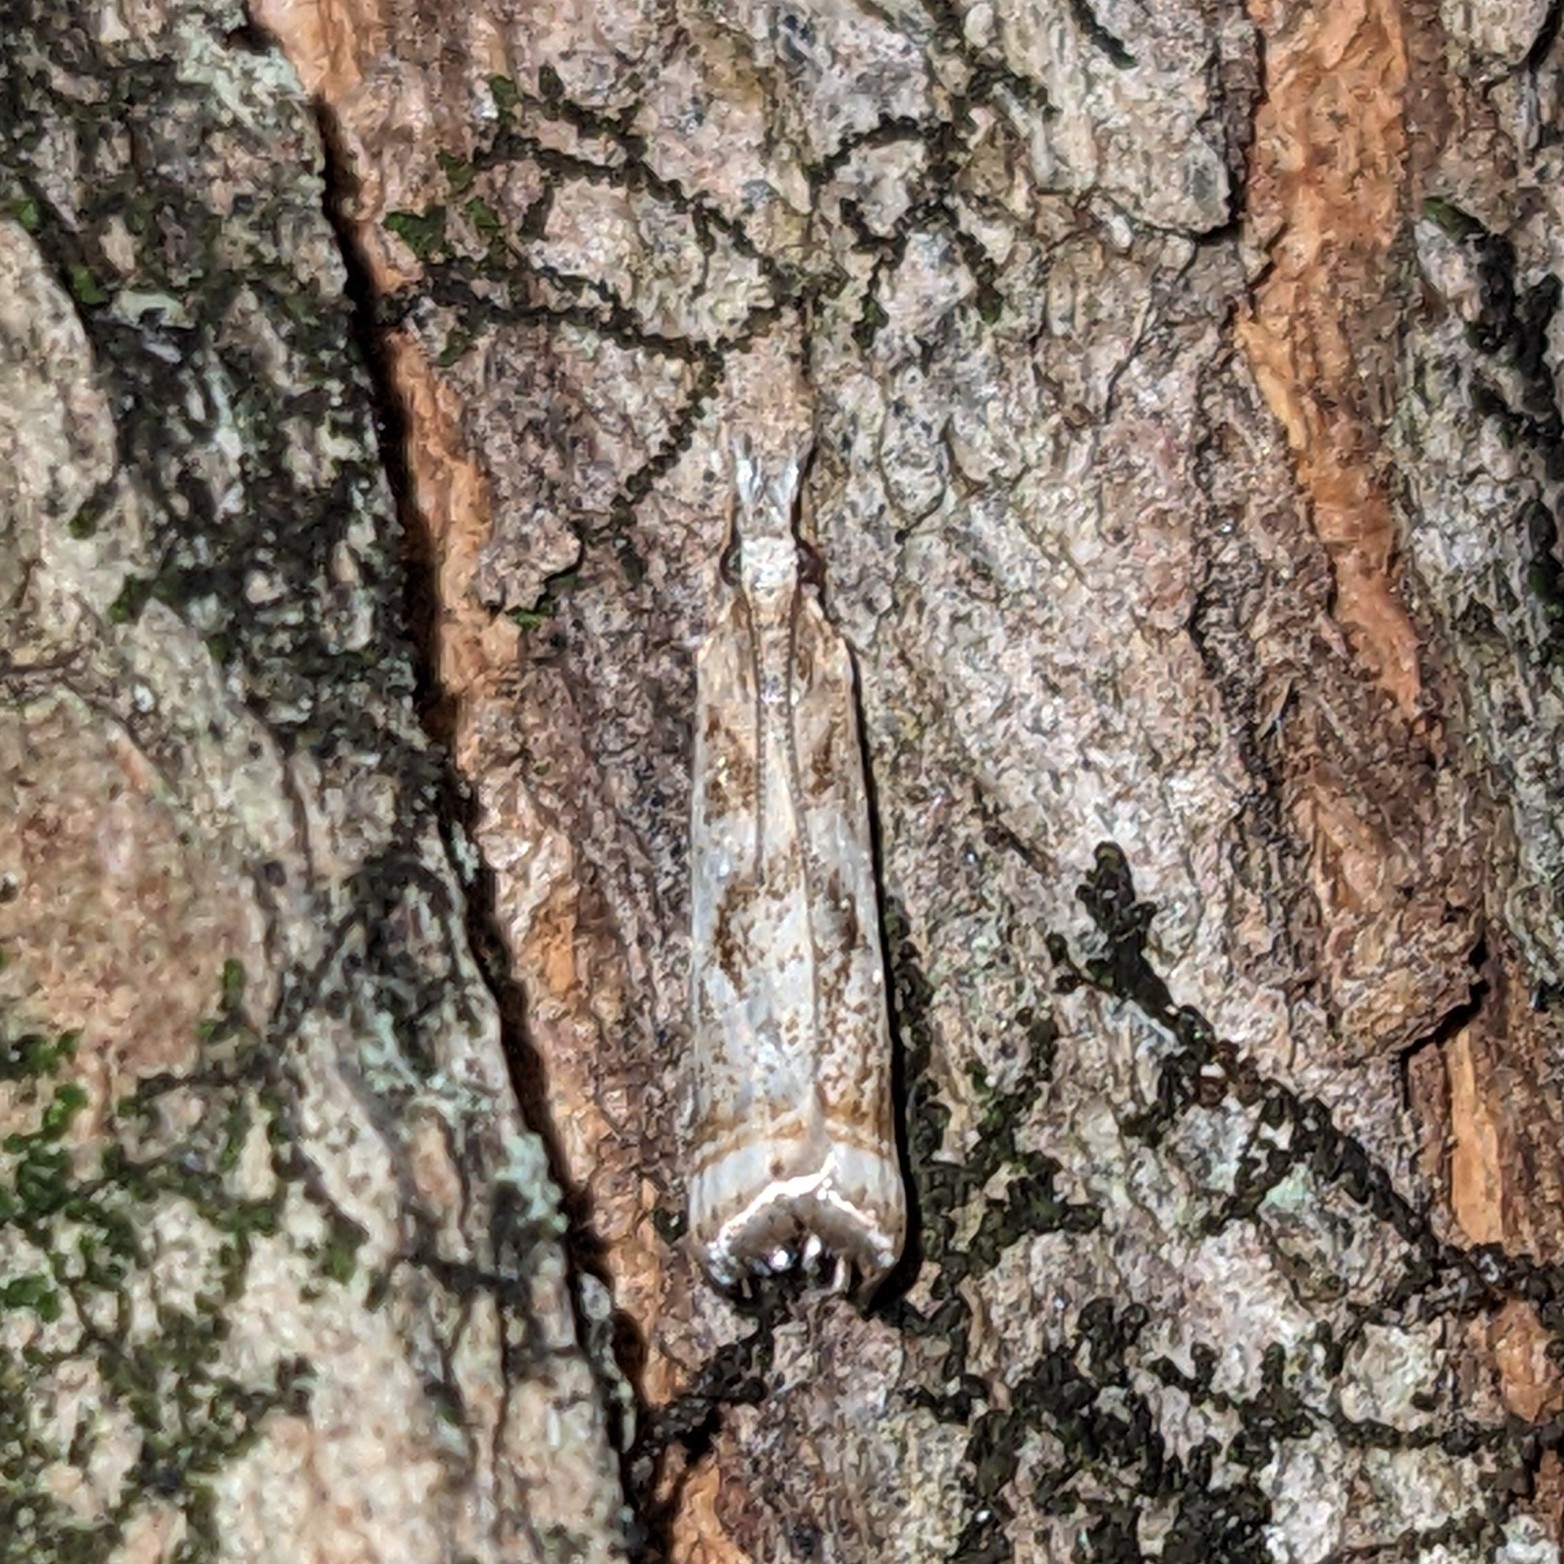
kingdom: Animalia
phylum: Arthropoda
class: Insecta
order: Lepidoptera
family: Crambidae
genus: Microcrambus
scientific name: Microcrambus elegans
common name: Elegant grass-veneer
